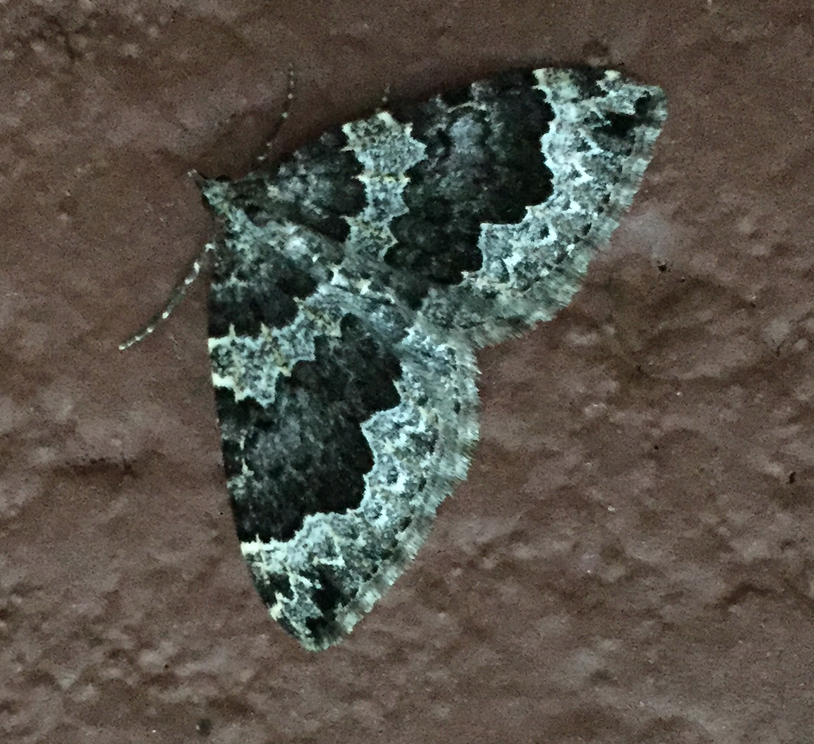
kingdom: Animalia
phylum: Arthropoda
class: Insecta
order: Lepidoptera
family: Geometridae
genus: Eustroma
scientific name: Eustroma semiatrata
